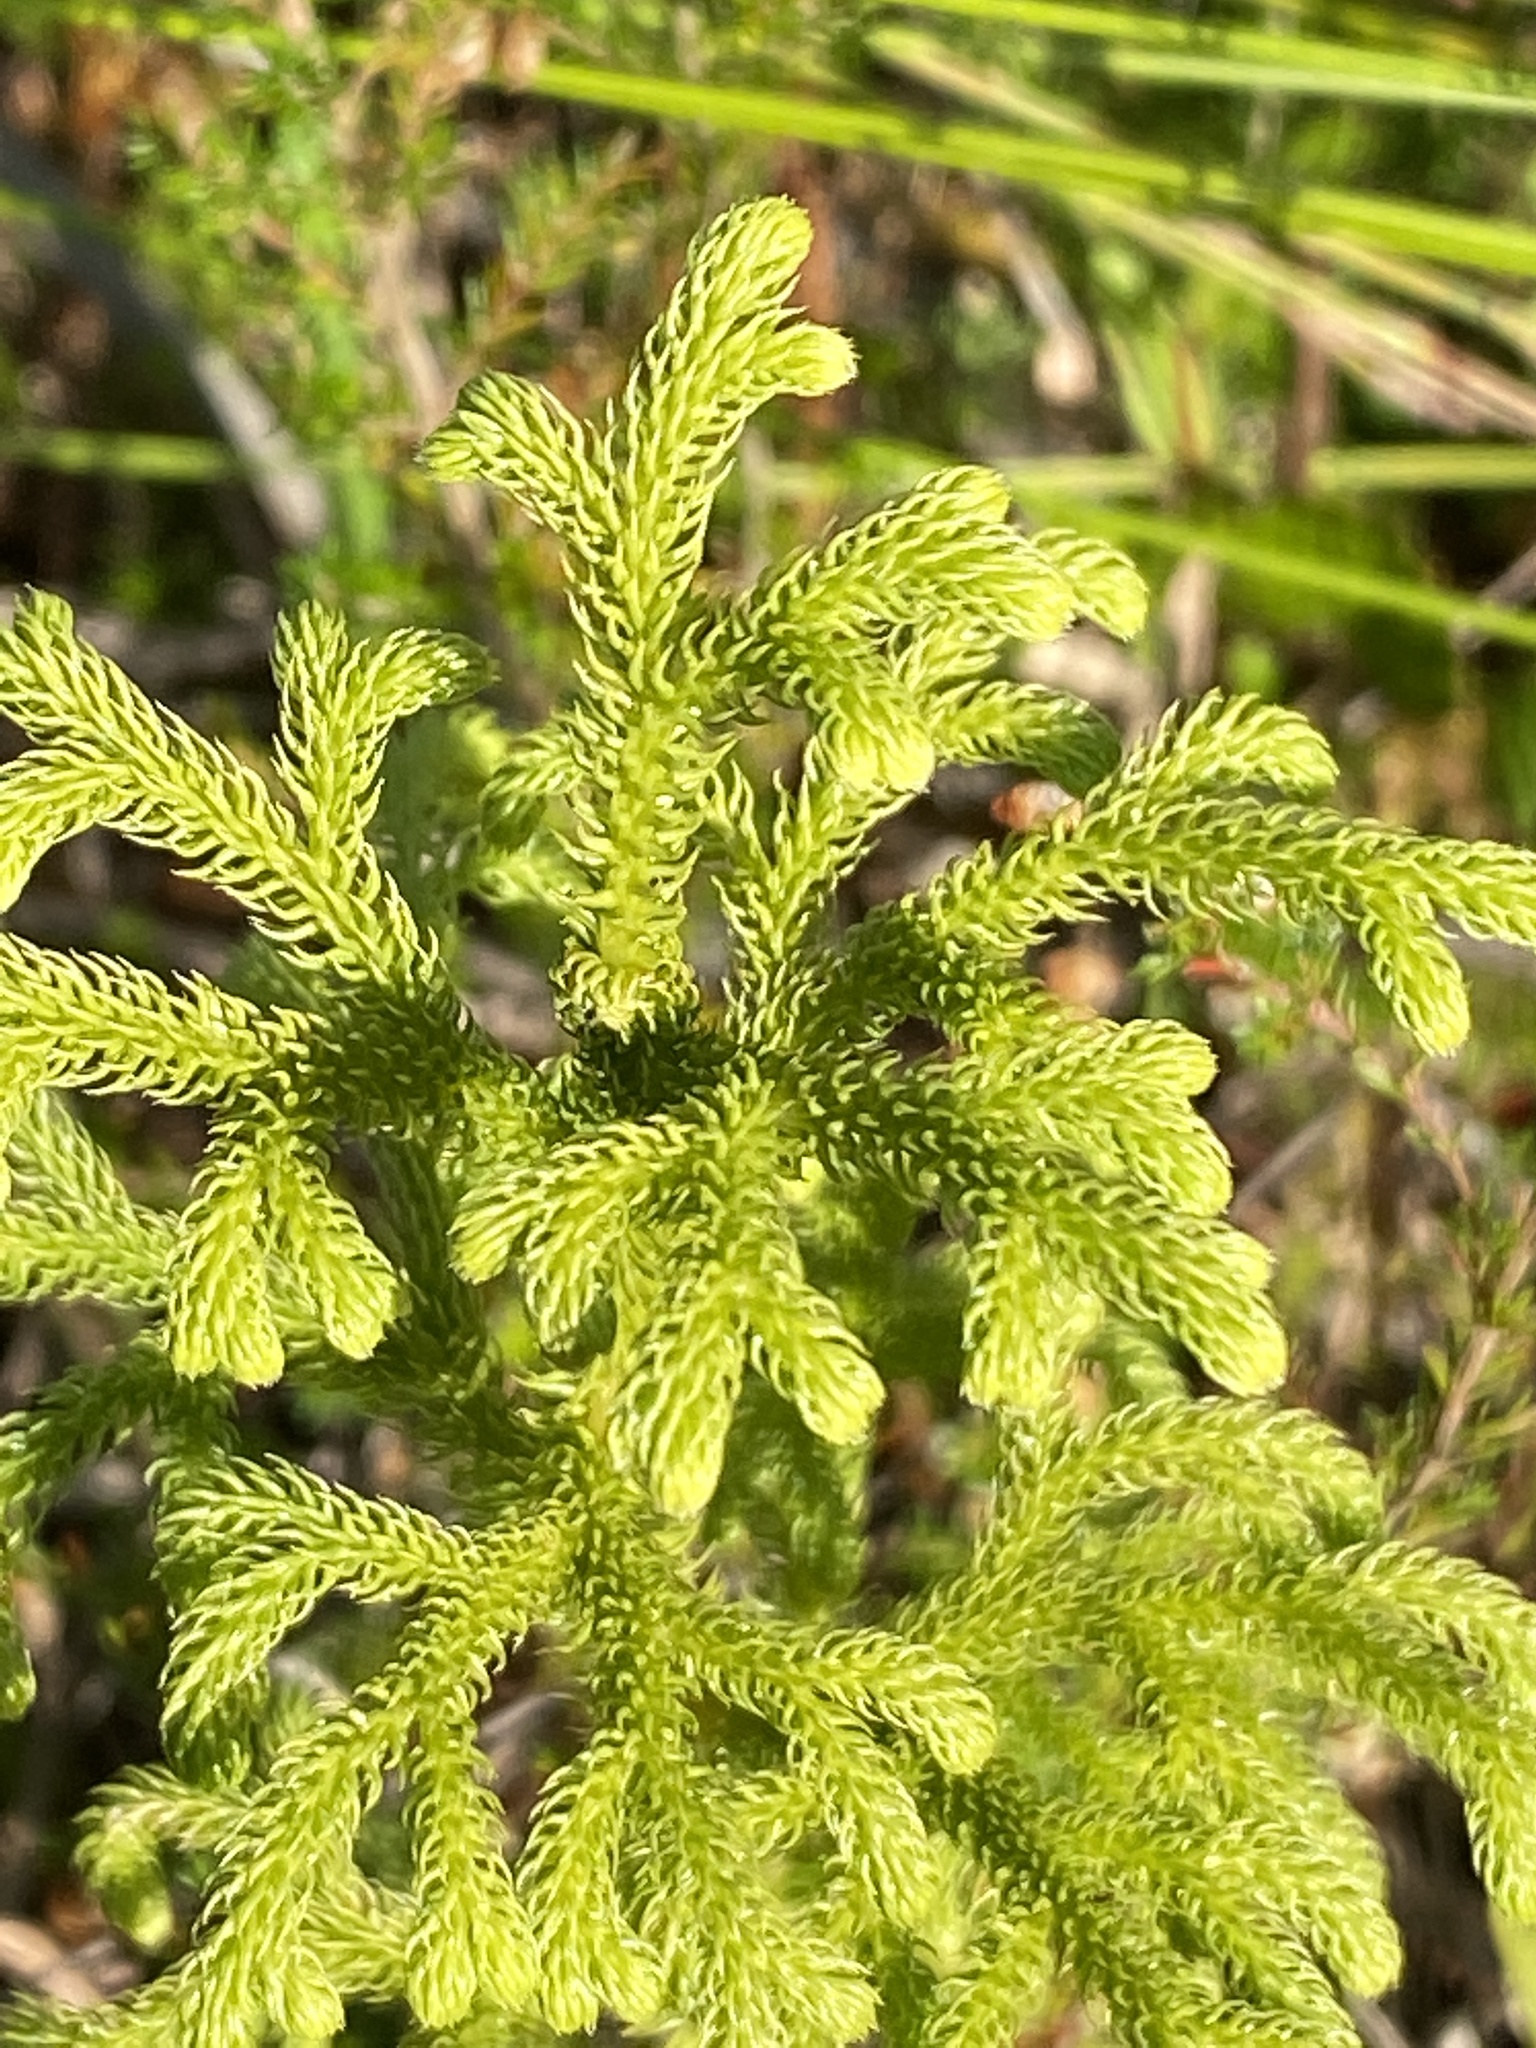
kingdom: Plantae
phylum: Tracheophyta
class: Lycopodiopsida
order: Lycopodiales
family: Lycopodiaceae
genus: Palhinhaea
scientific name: Palhinhaea cernua
